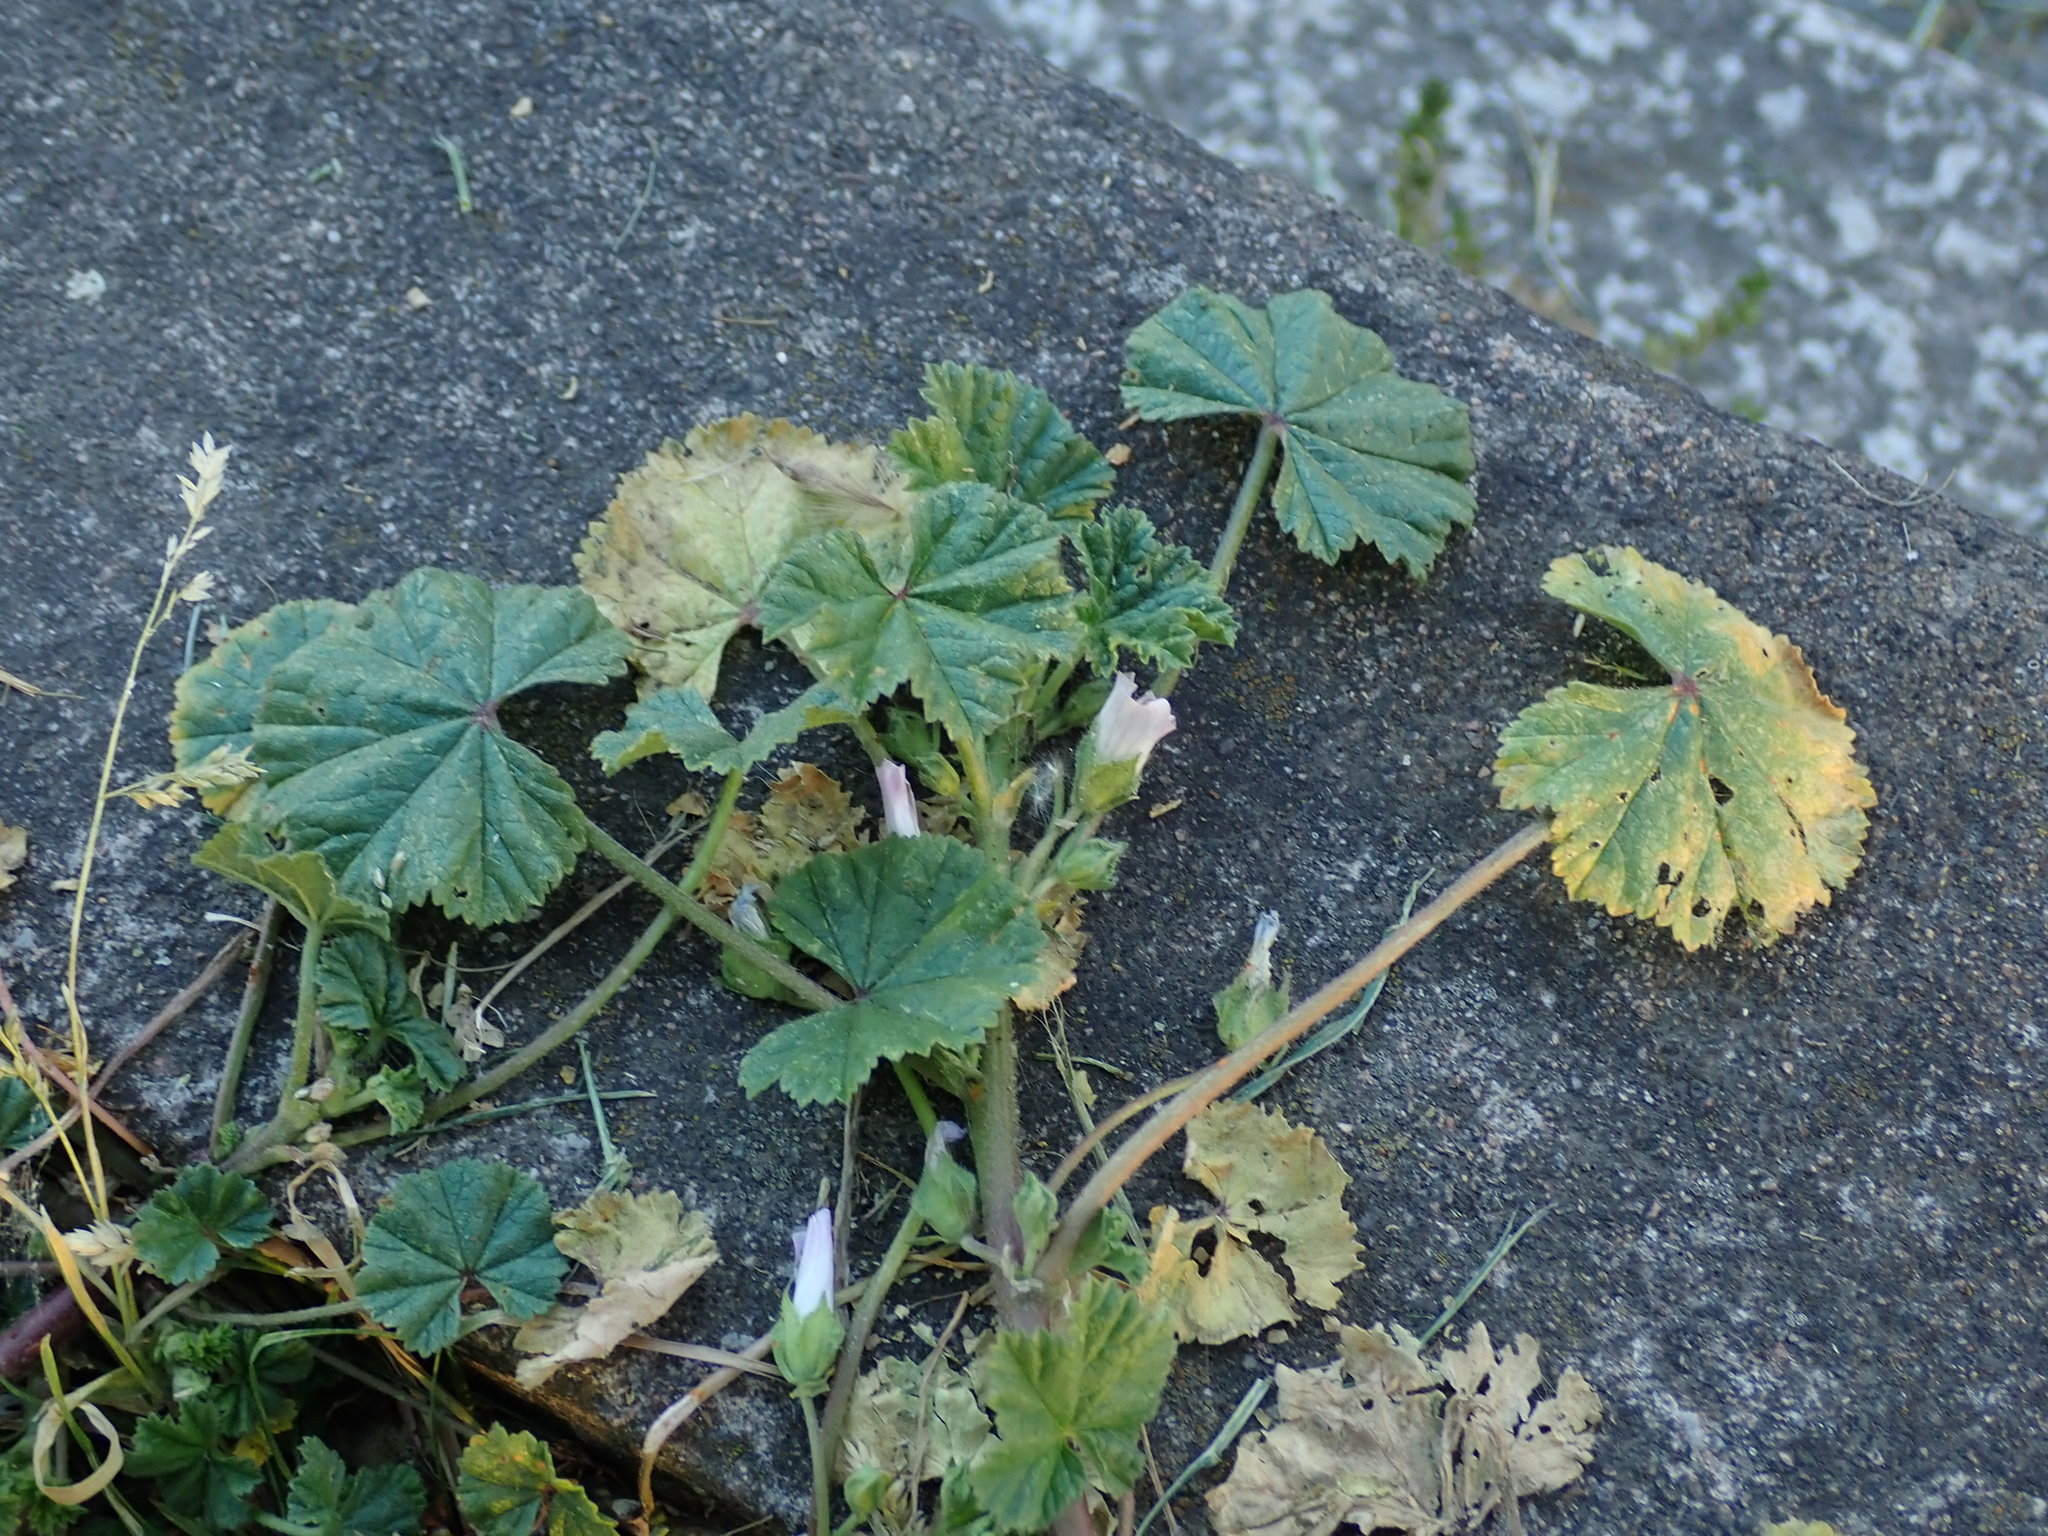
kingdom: Plantae
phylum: Tracheophyta
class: Magnoliopsida
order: Malvales
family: Malvaceae
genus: Malva
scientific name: Malva neglecta
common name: Common mallow
